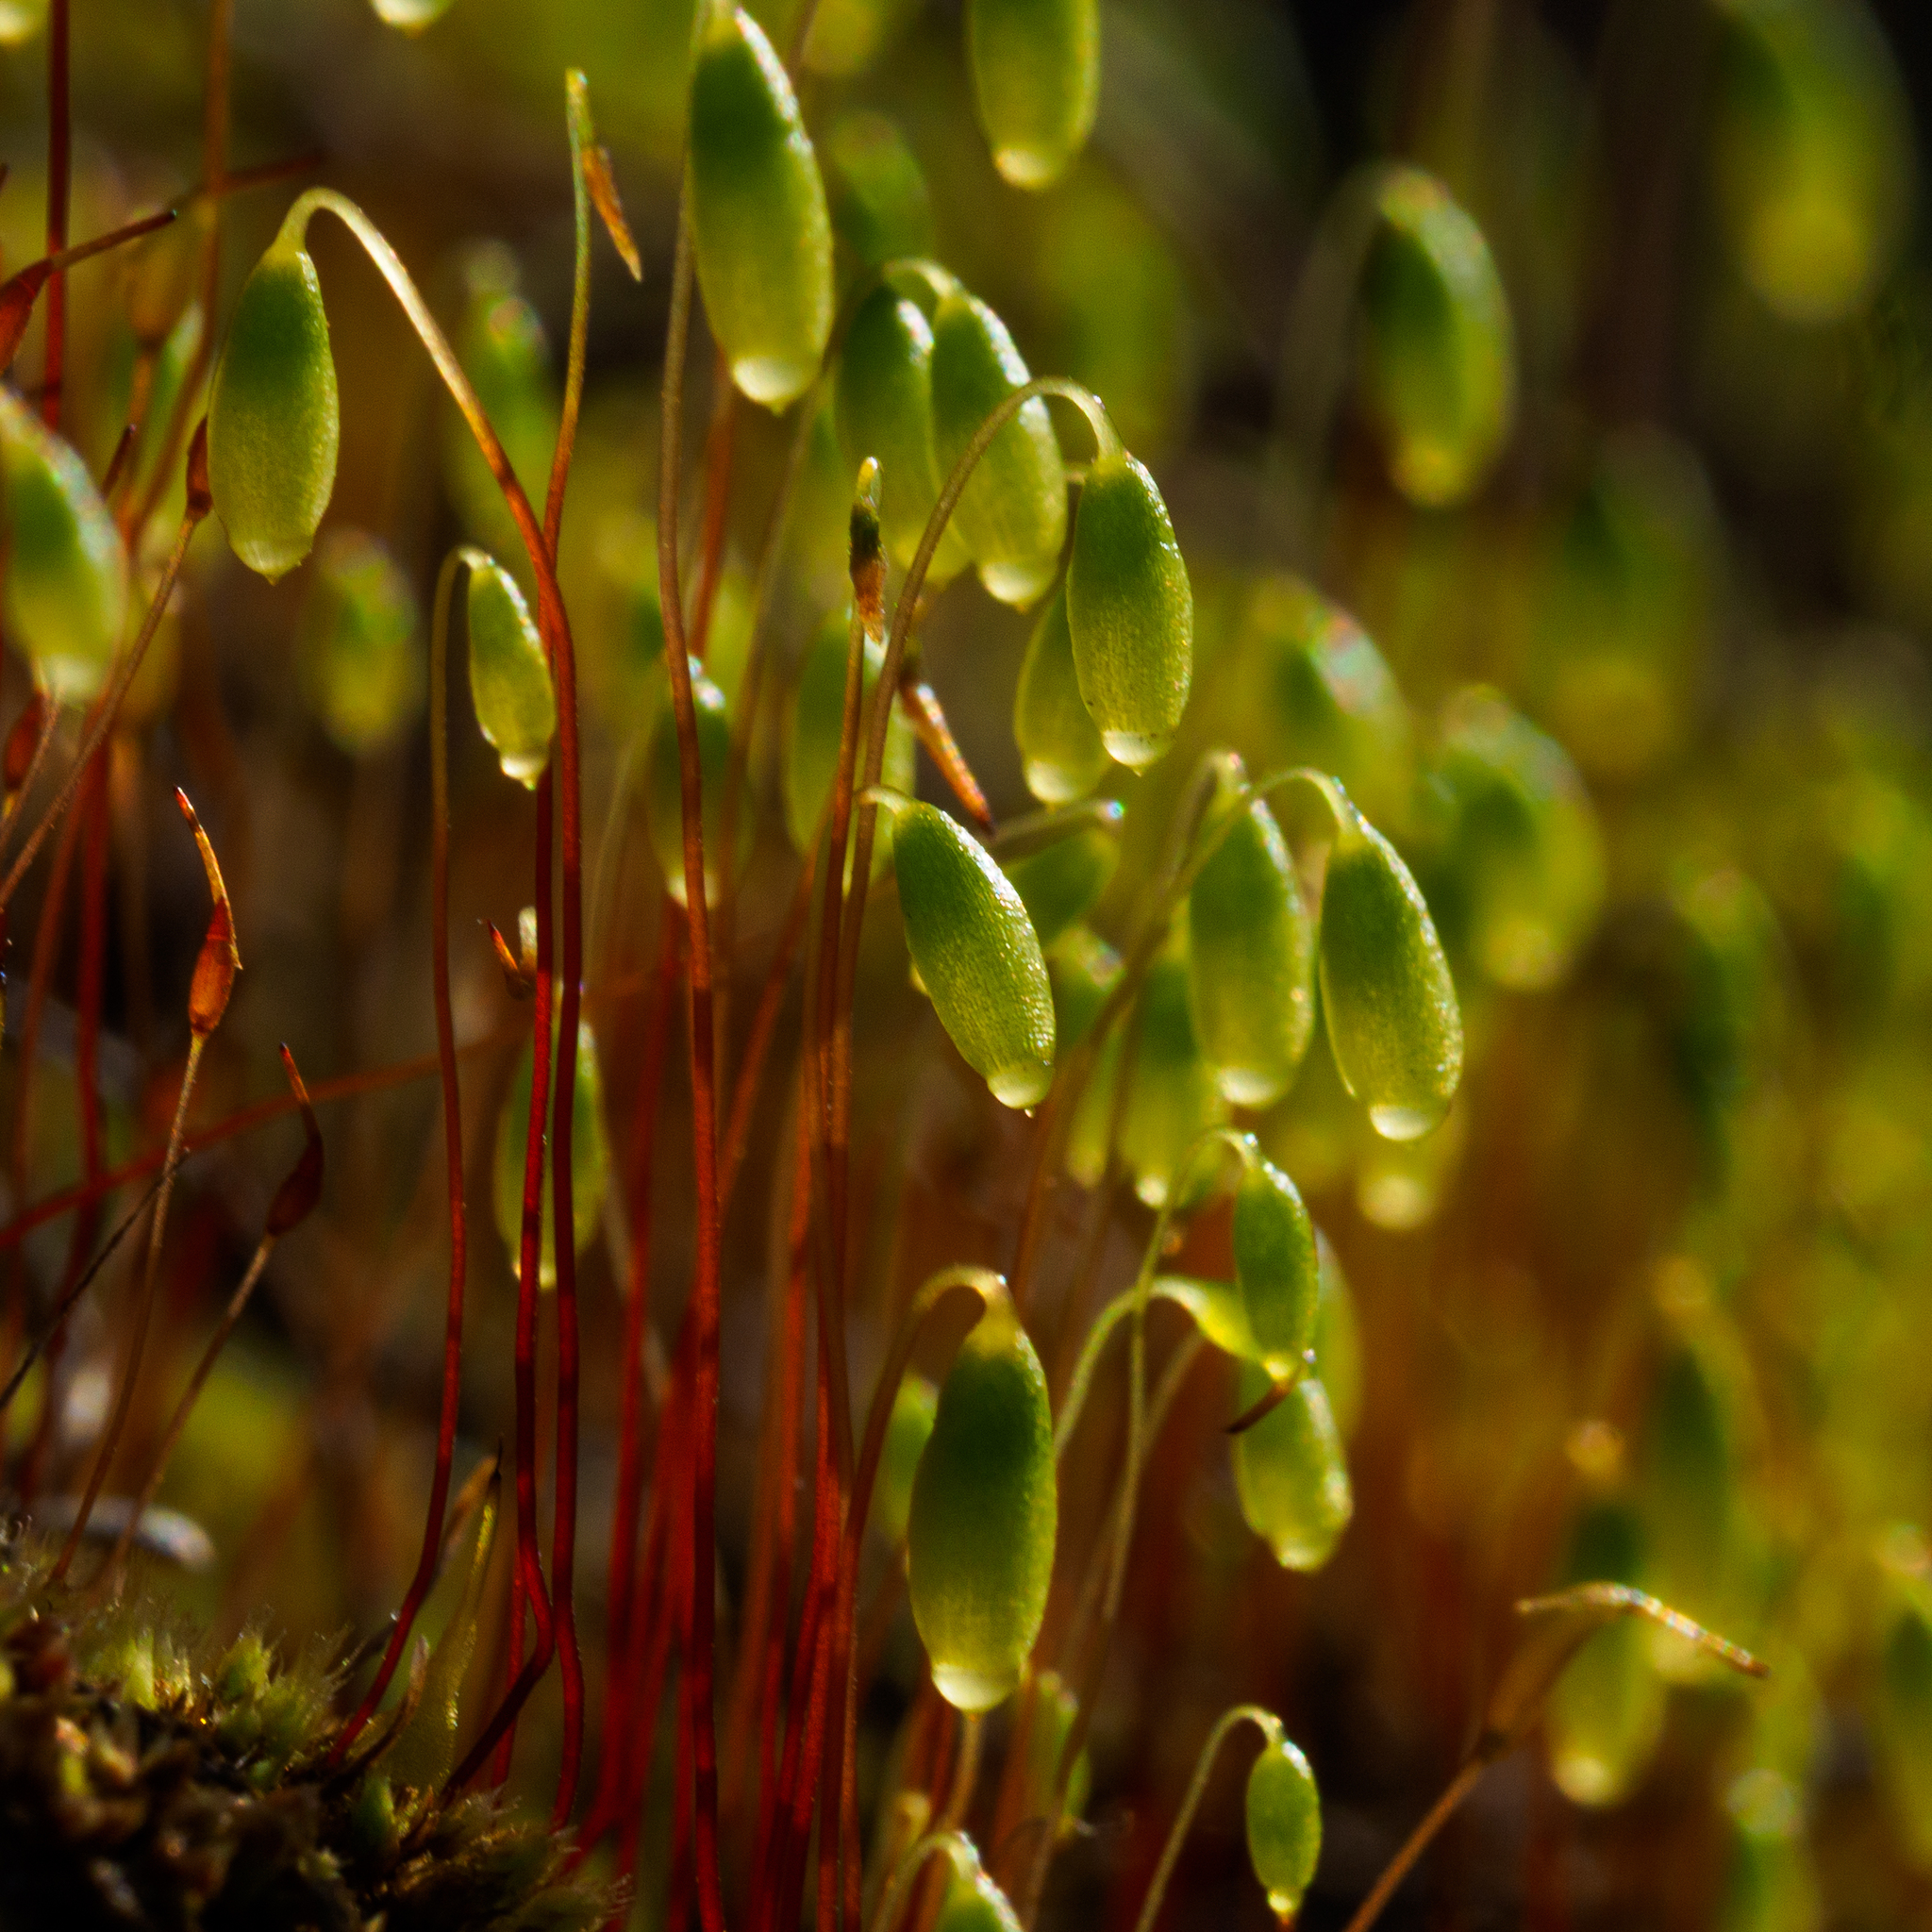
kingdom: Plantae
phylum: Bryophyta
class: Bryopsida
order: Bryales
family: Mniaceae
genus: Pohlia
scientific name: Pohlia nutans
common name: Nodding thread-moss
